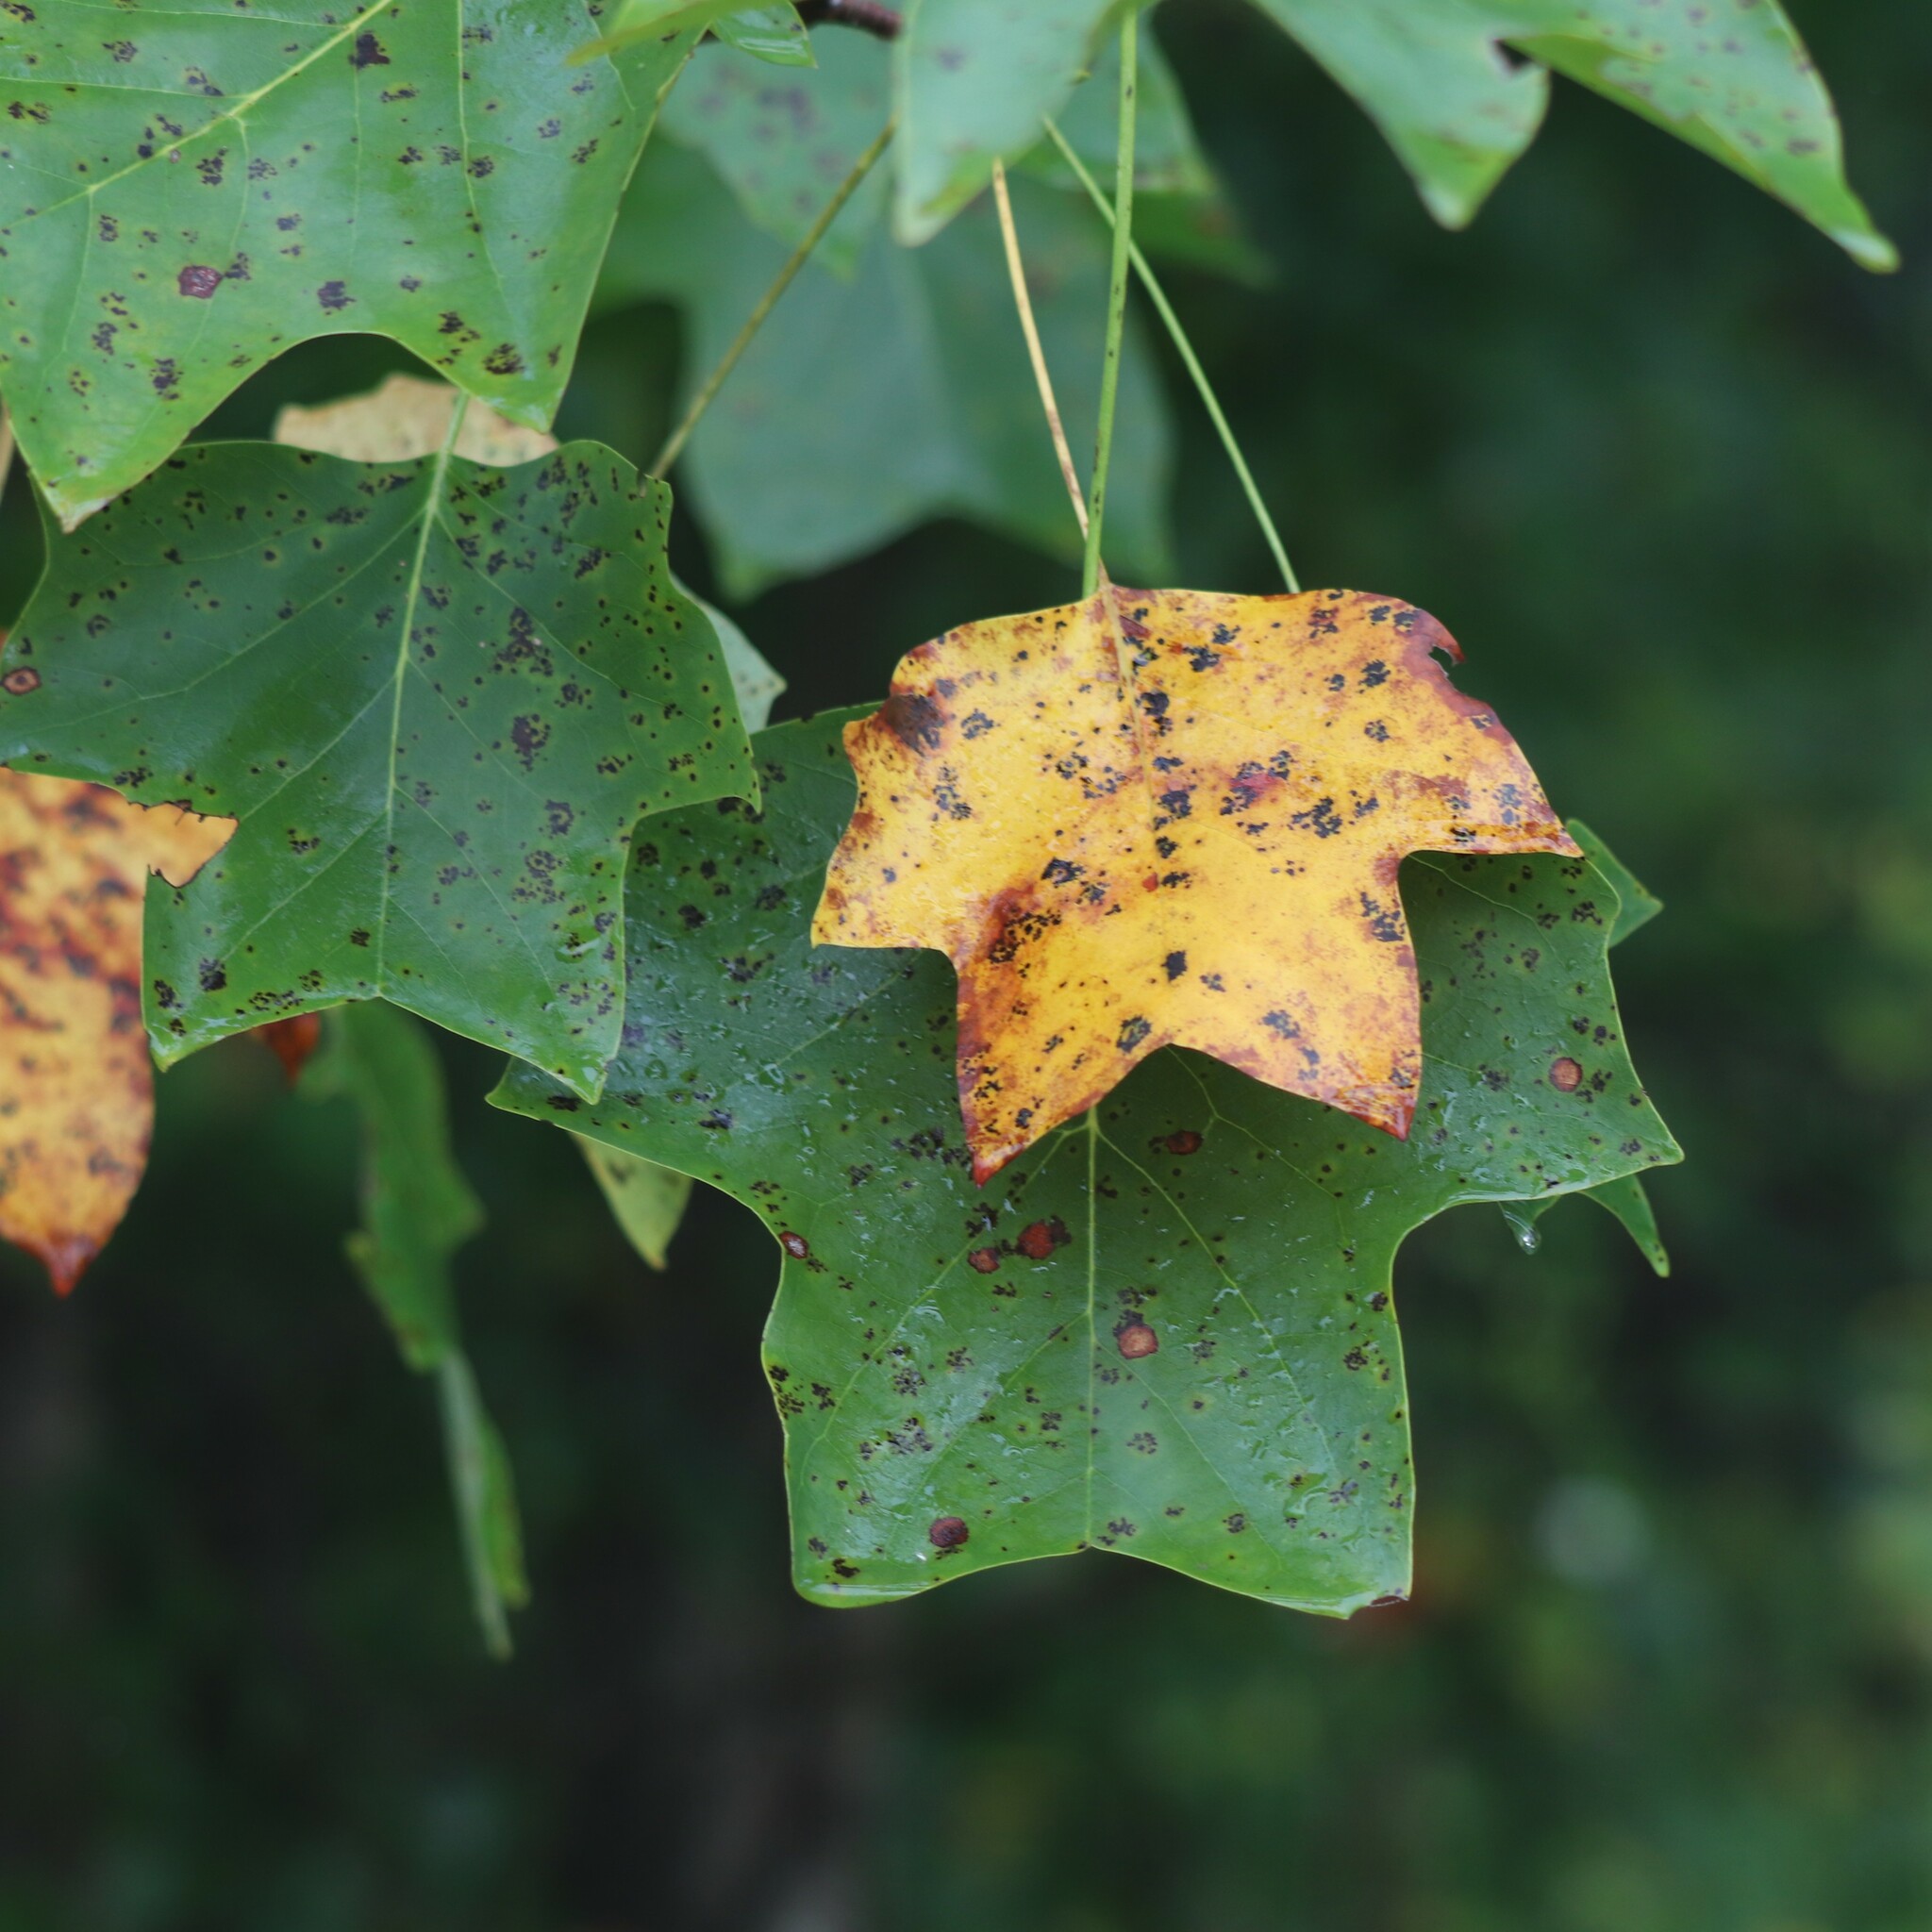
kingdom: Plantae
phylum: Tracheophyta
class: Magnoliopsida
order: Magnoliales
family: Magnoliaceae
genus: Liriodendron
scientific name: Liriodendron tulipifera
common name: Tulip tree
